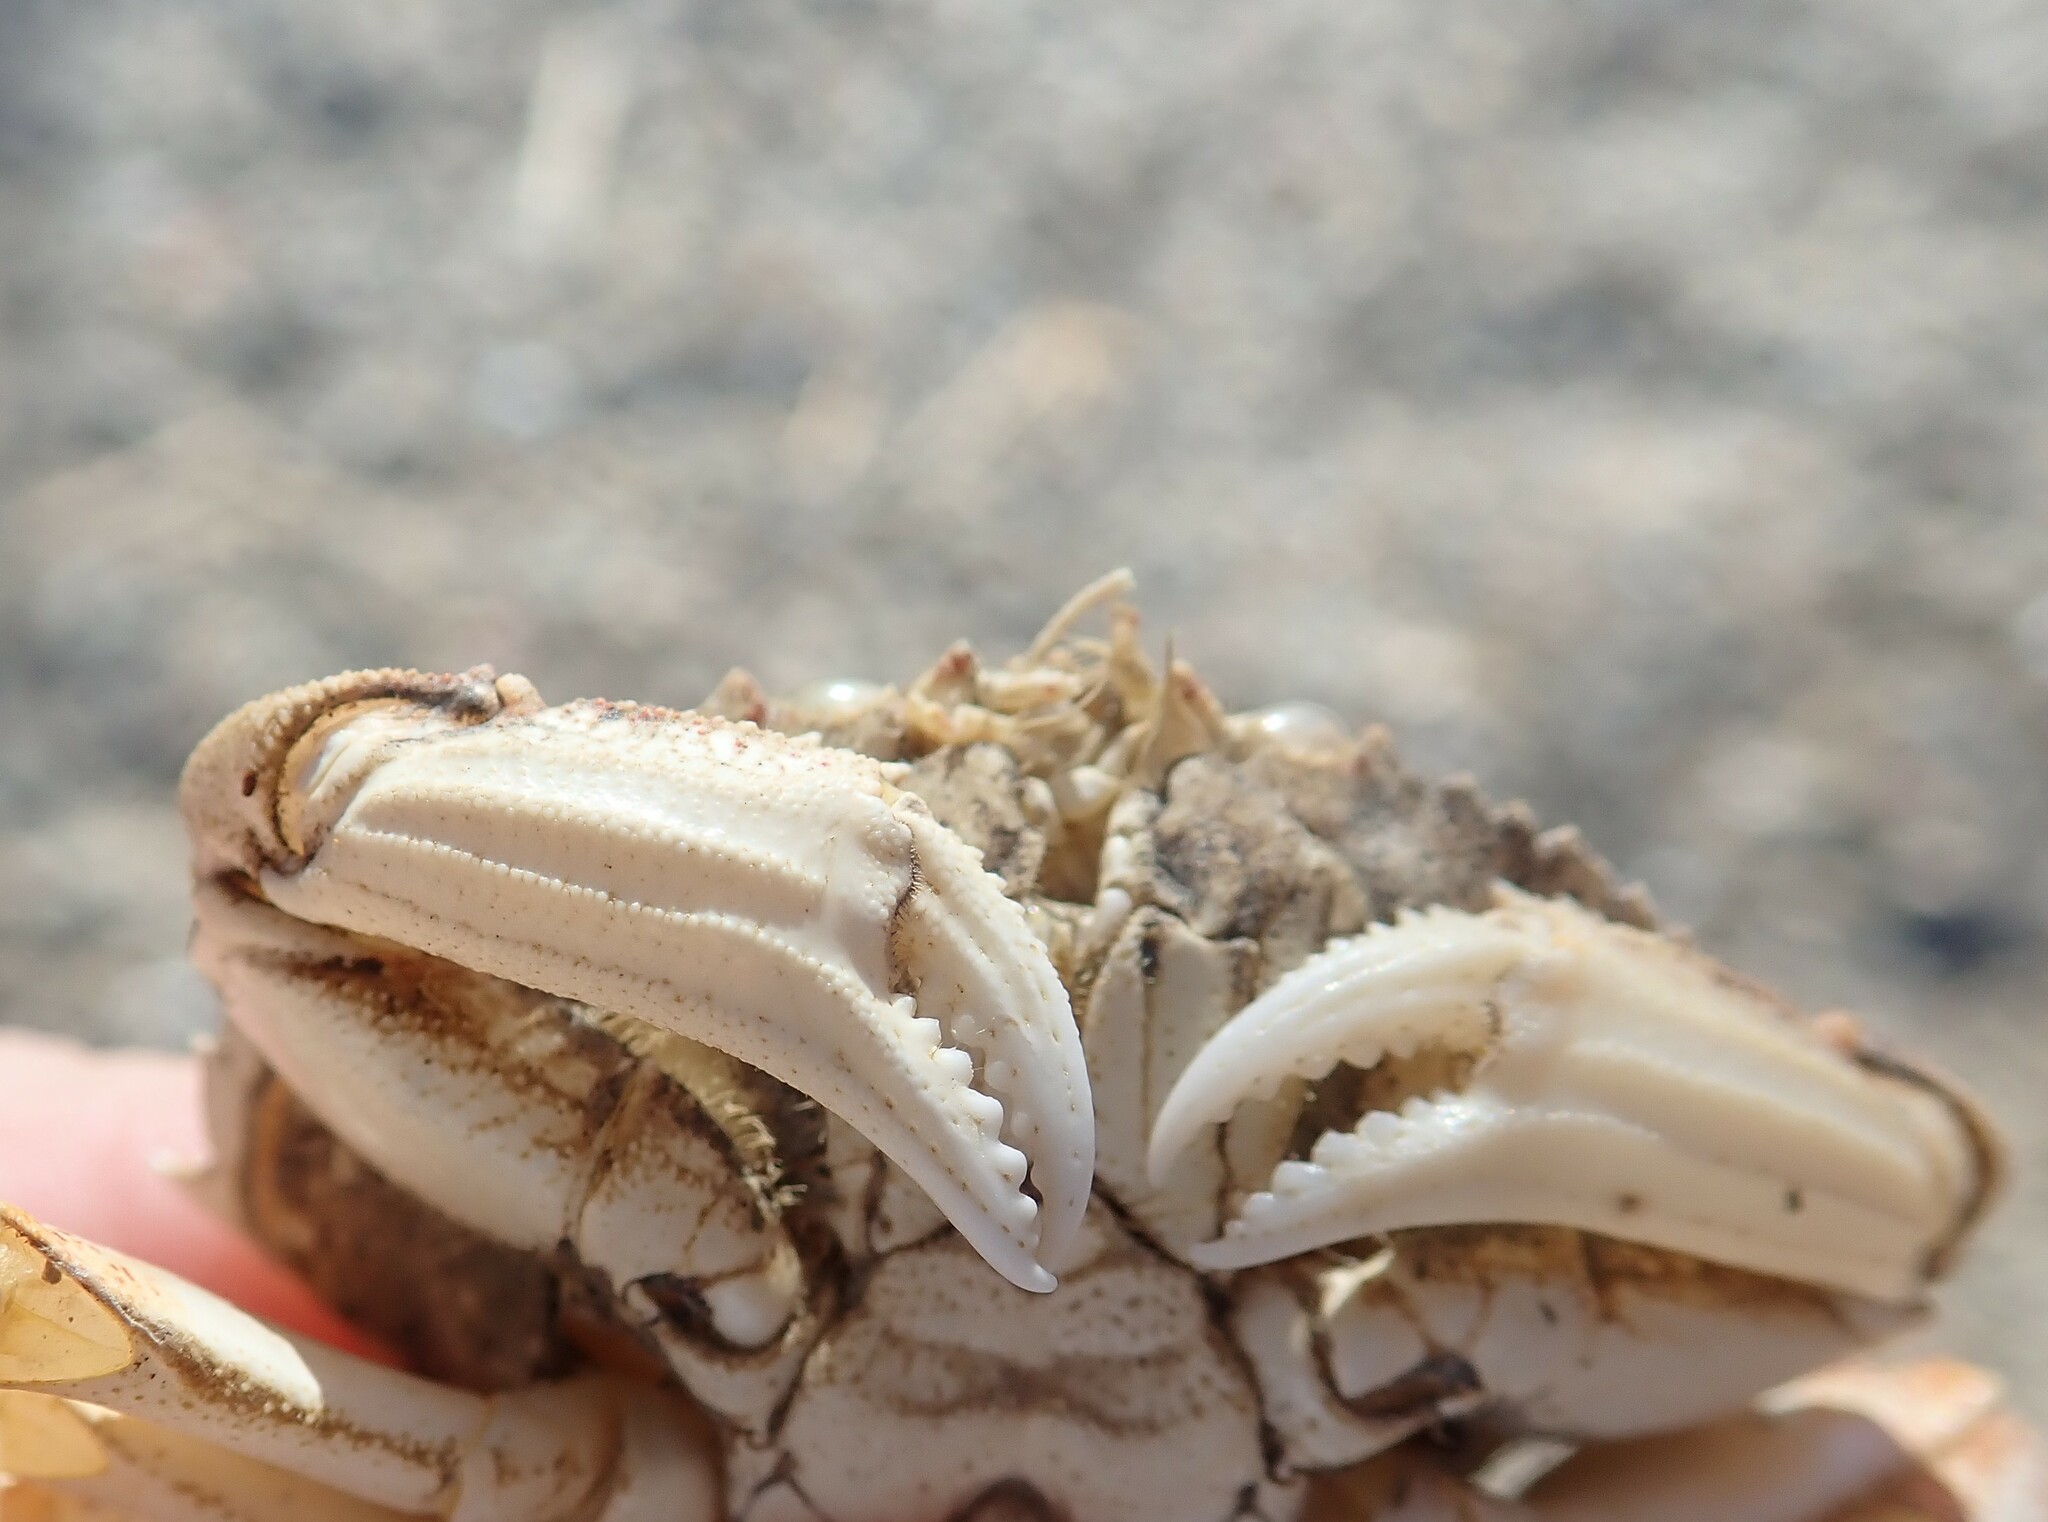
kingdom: Animalia
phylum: Arthropoda
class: Malacostraca
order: Decapoda
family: Cancridae
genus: Metacarcinus
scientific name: Metacarcinus magister
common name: Californian crab
